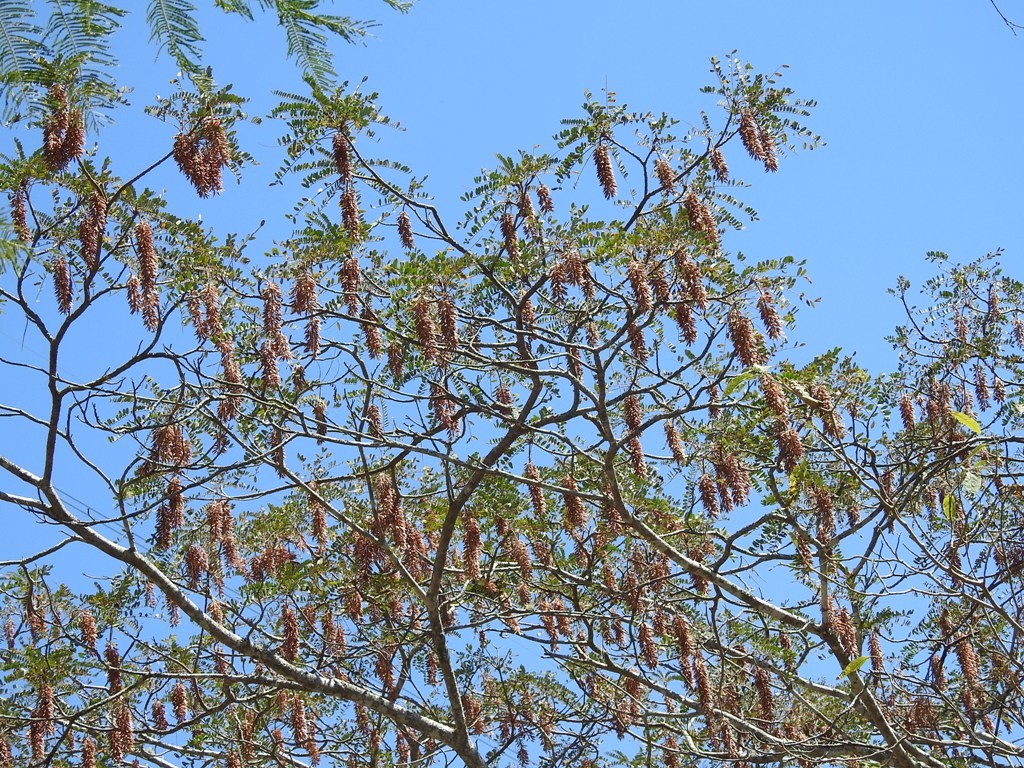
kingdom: Plantae
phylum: Tracheophyta
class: Magnoliopsida
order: Picramniales
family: Picramniaceae
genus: Alvaradoa
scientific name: Alvaradoa amorphoides
